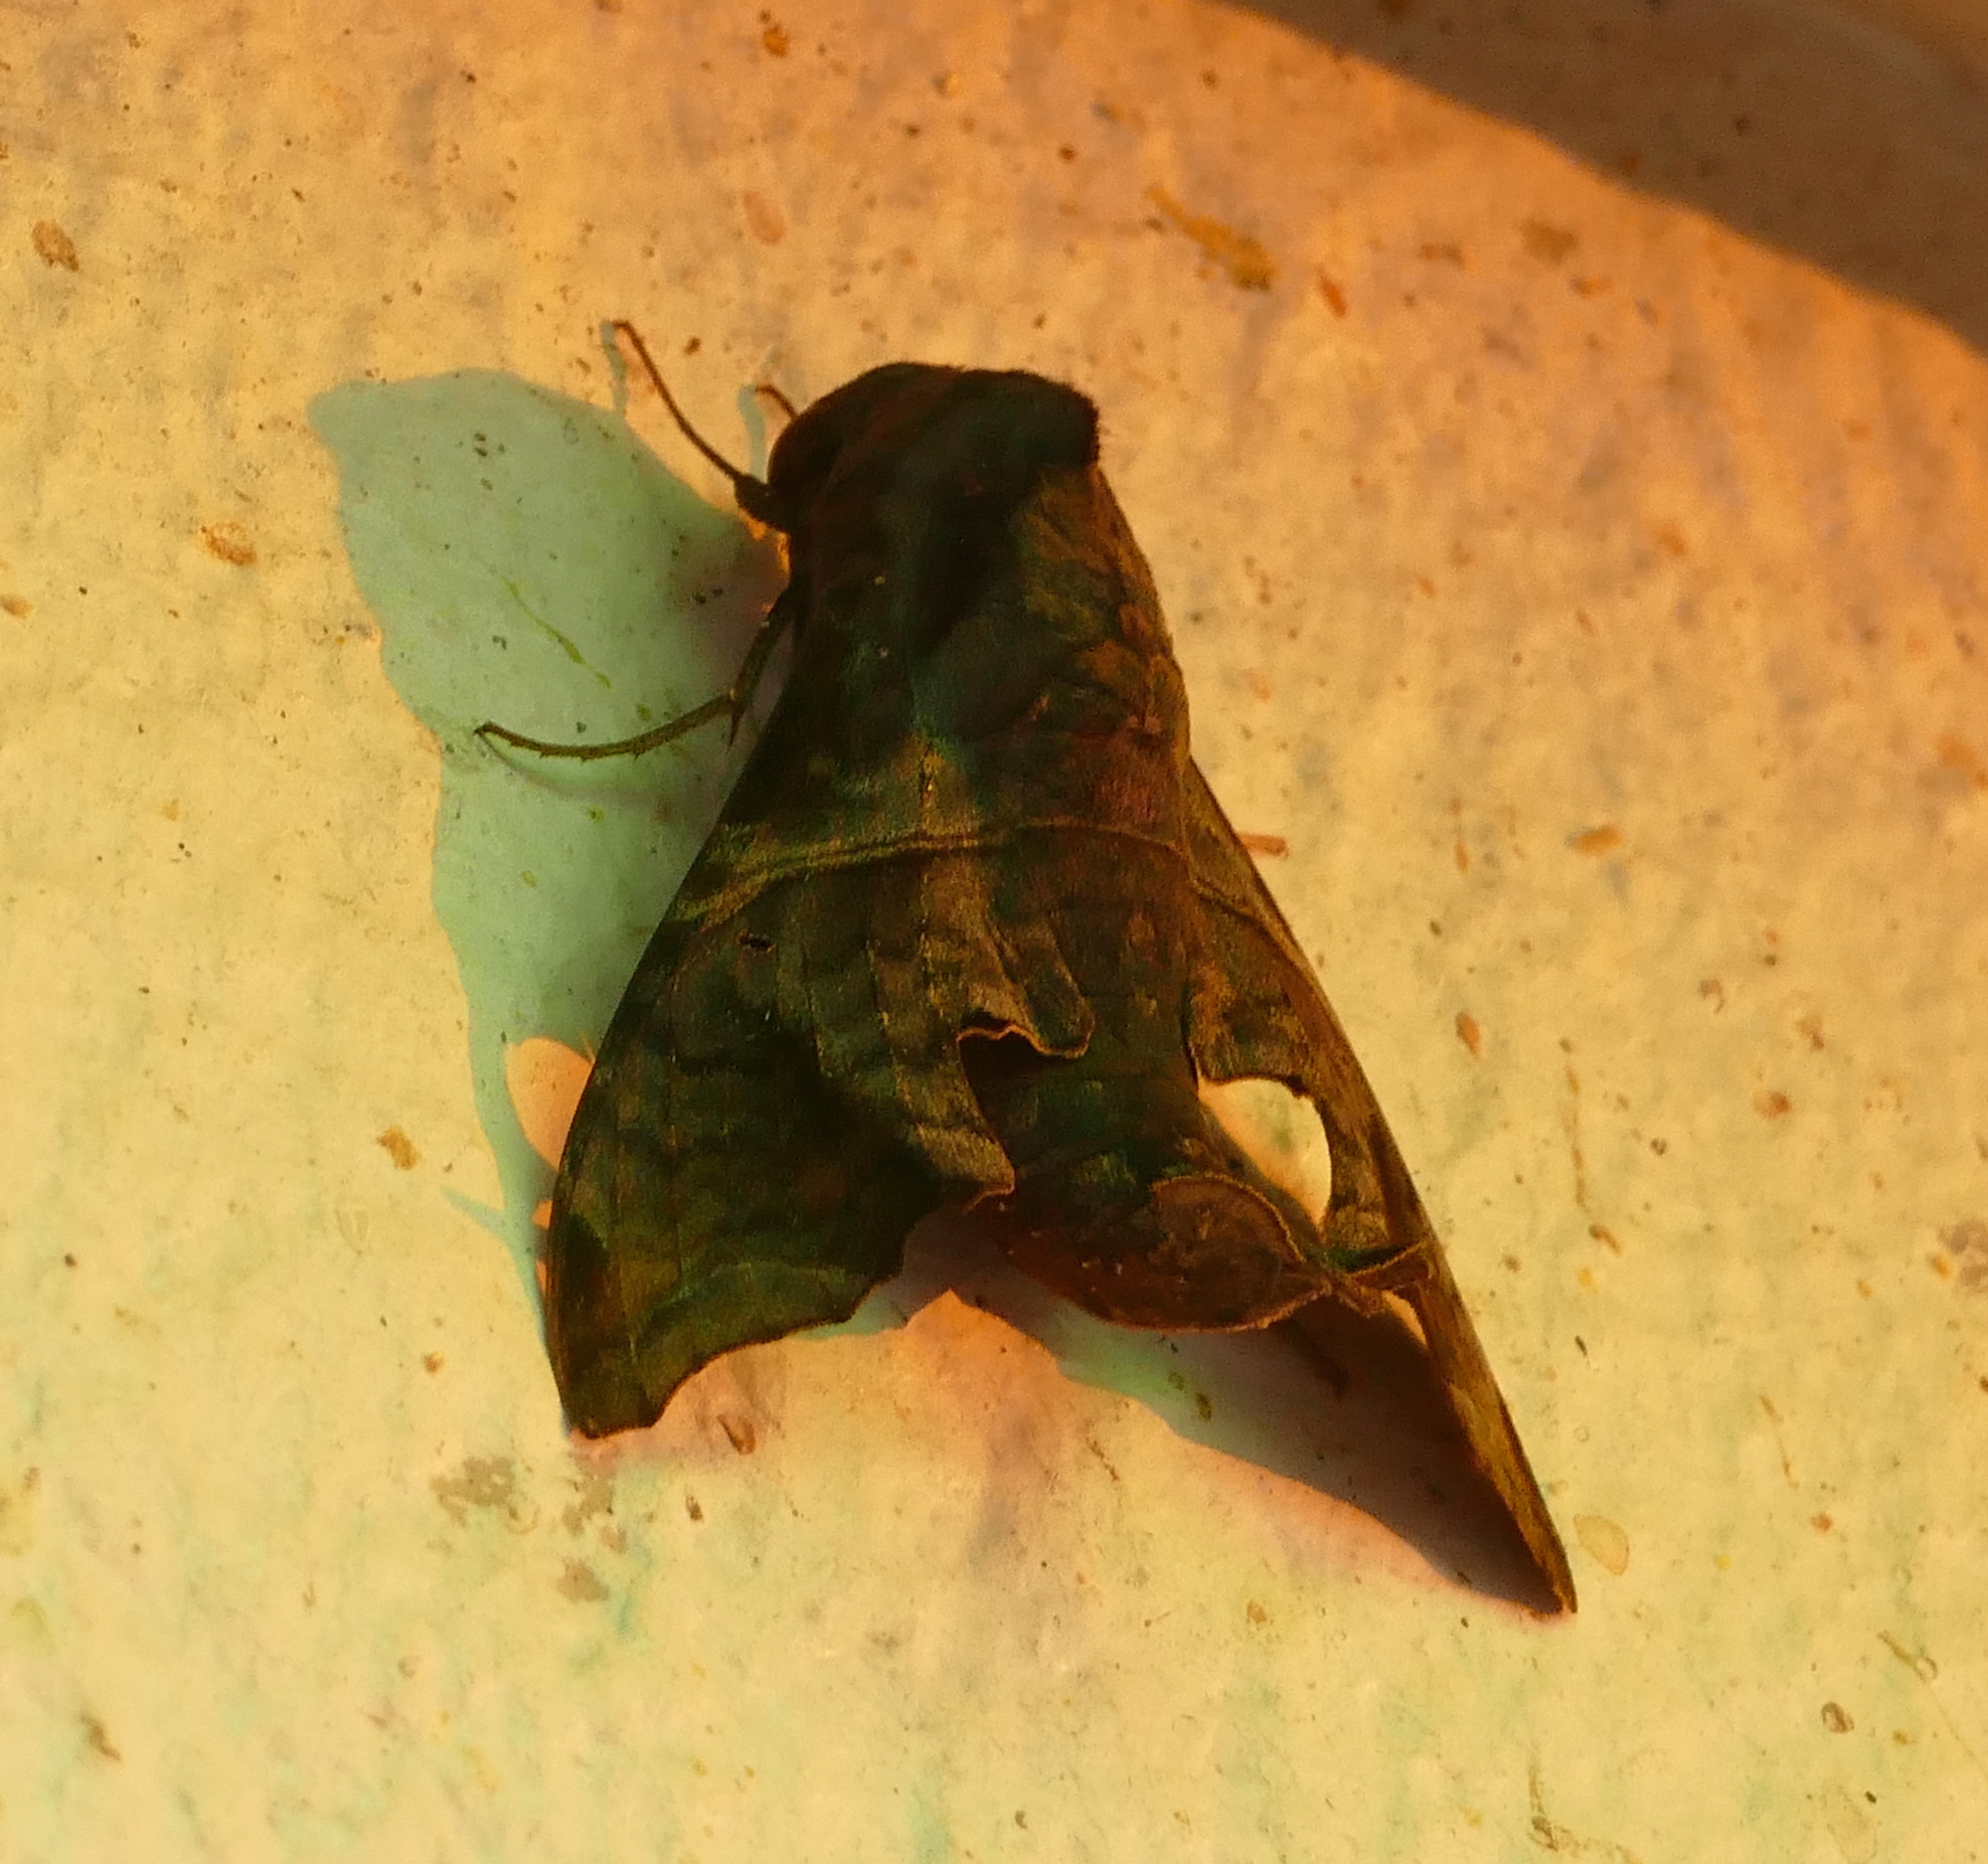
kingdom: Animalia
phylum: Arthropoda
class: Insecta
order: Lepidoptera
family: Sphingidae
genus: Enyo
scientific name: Enyo lugubris
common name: Mournful sphinx
